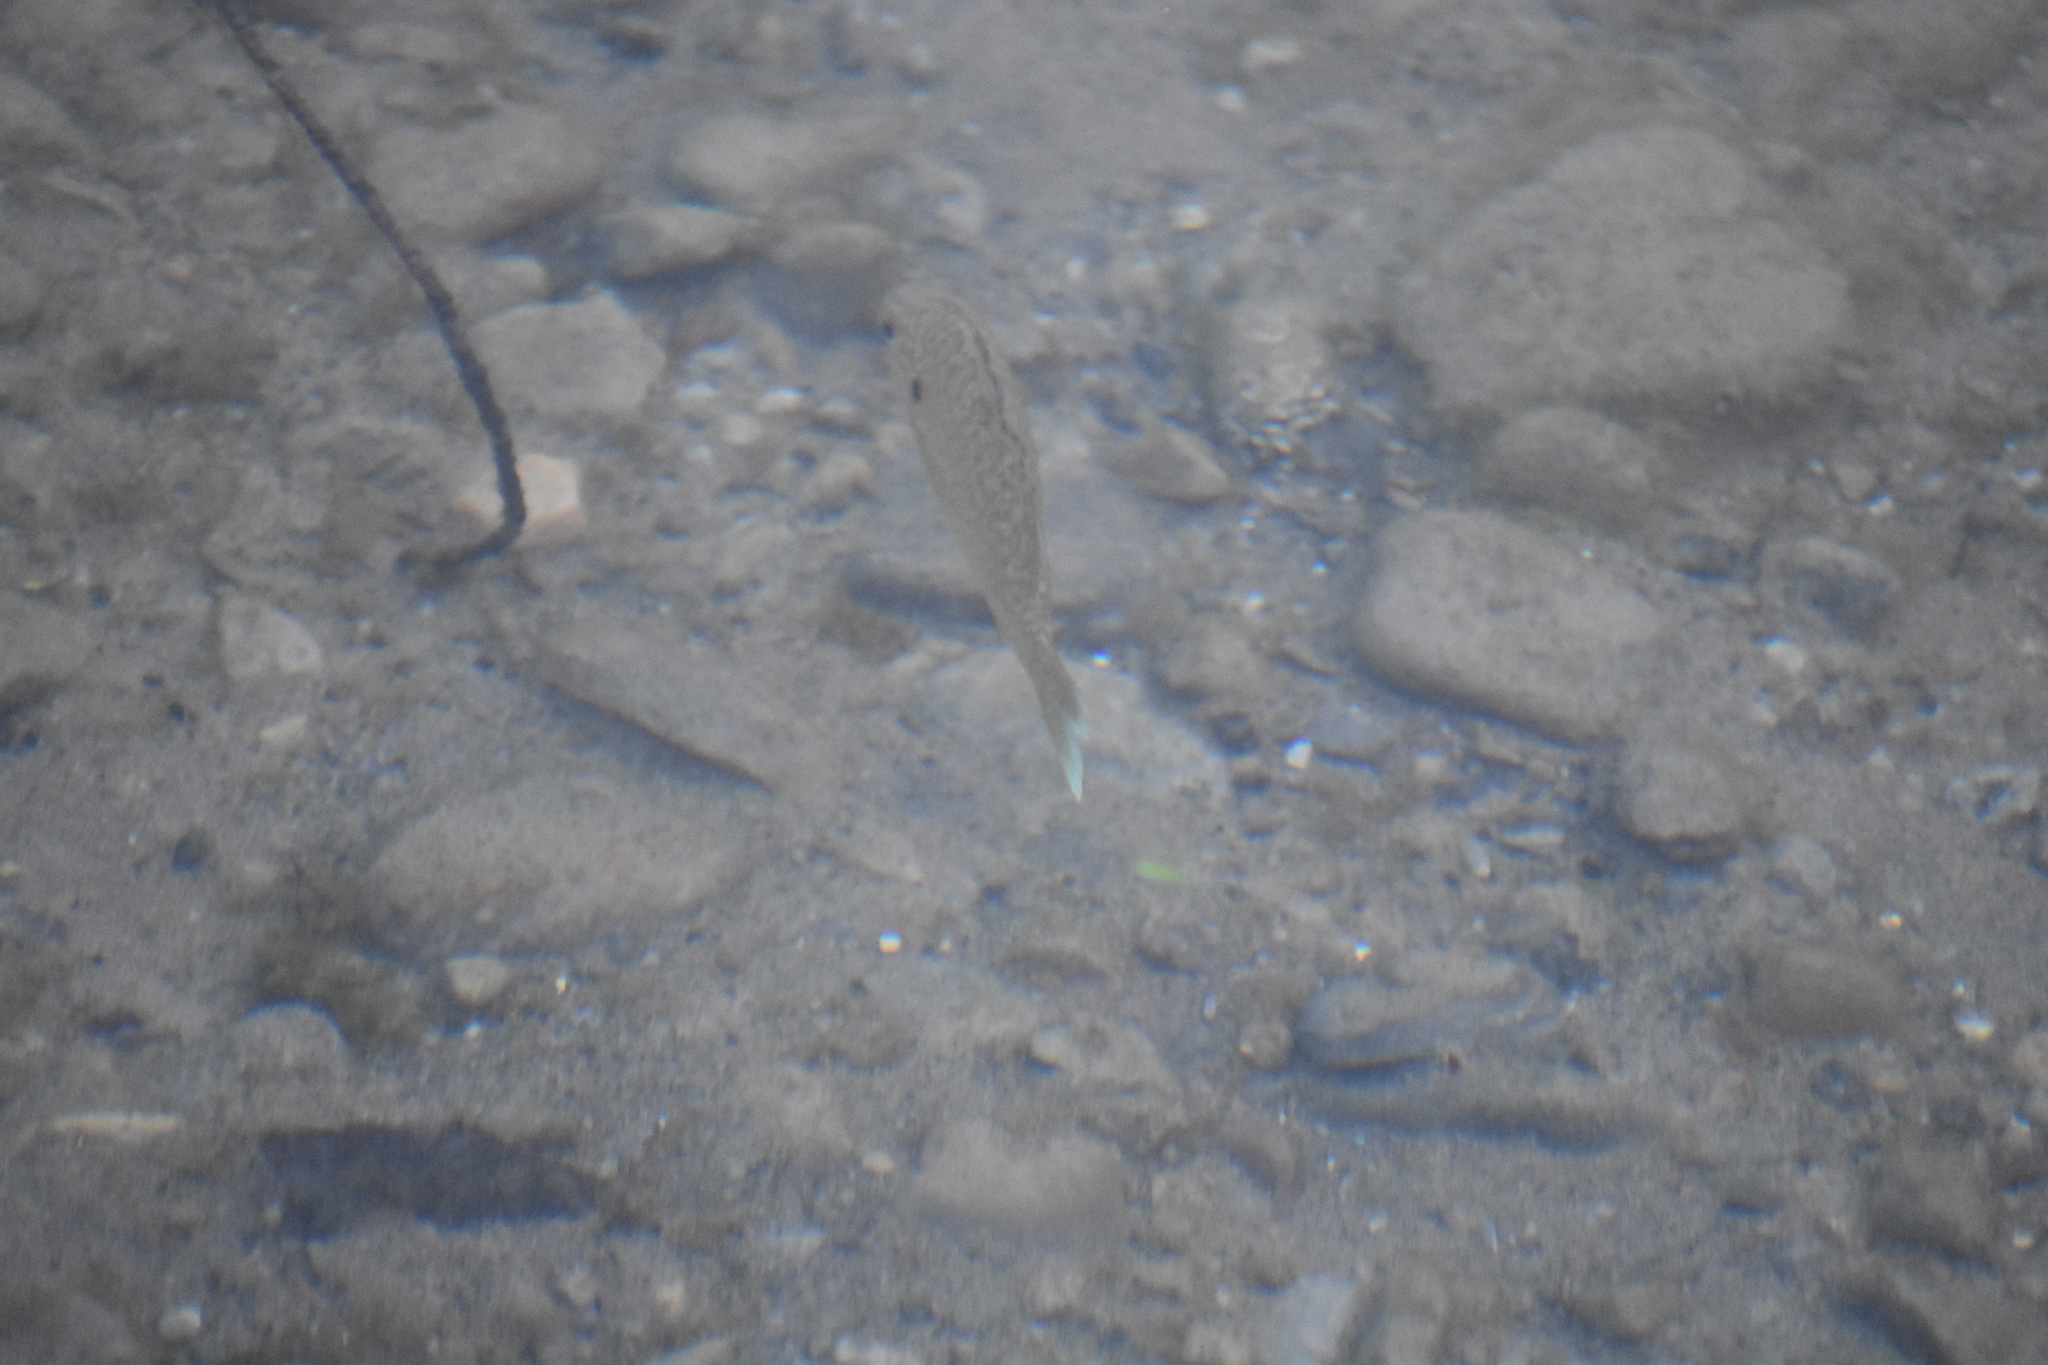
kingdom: Animalia
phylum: Chordata
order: Perciformes
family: Centrarchidae
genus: Lepomis
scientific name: Lepomis gibbosus
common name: Pumpkinseed
